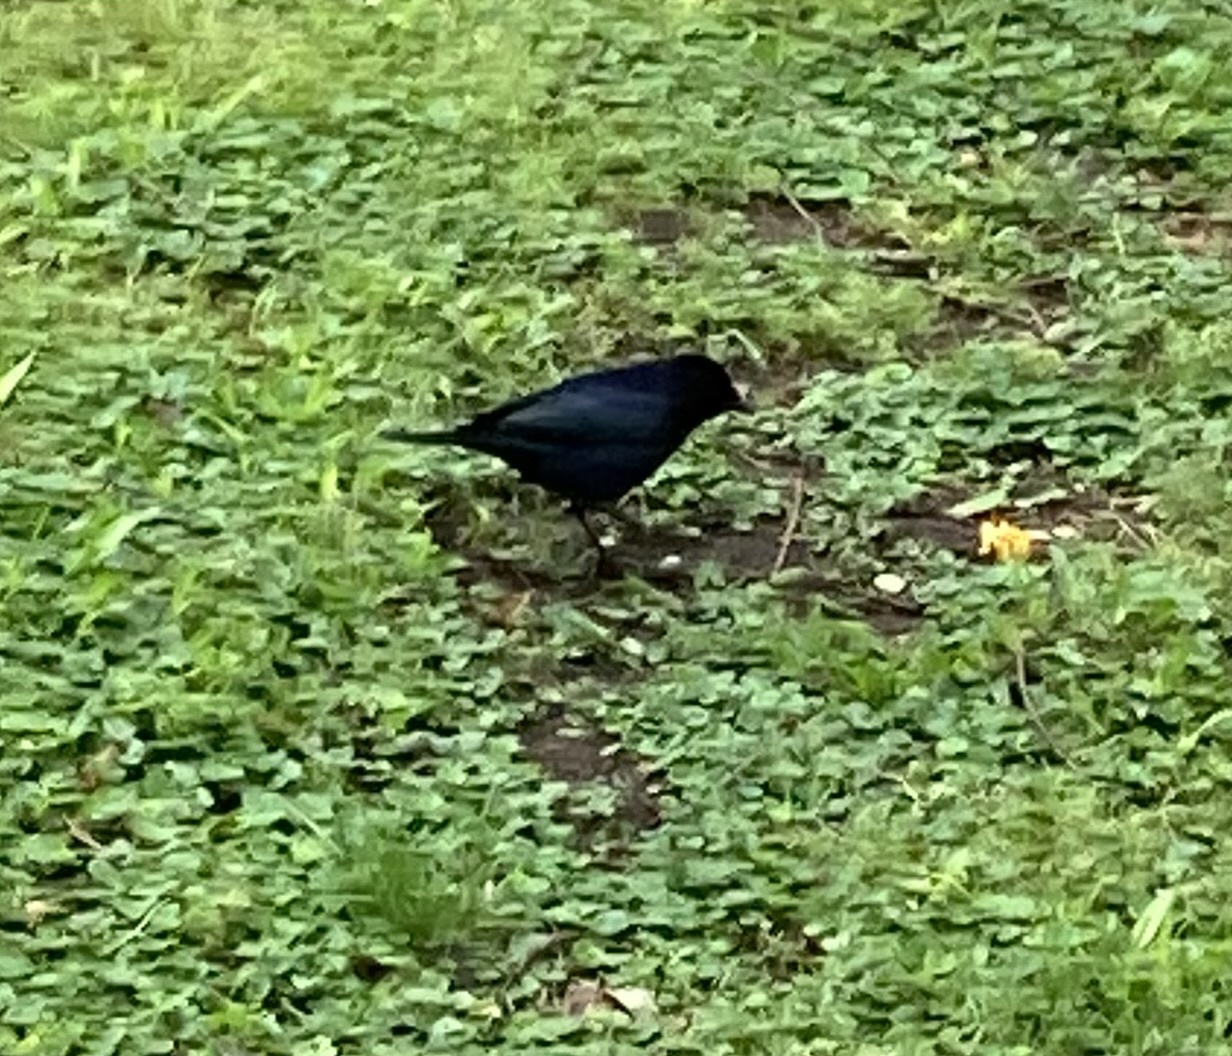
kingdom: Animalia
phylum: Chordata
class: Aves
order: Passeriformes
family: Icteridae
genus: Molothrus
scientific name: Molothrus bonariensis
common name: Shiny cowbird
